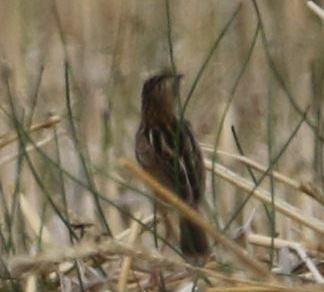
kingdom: Animalia
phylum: Chordata
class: Aves
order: Passeriformes
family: Cisticolidae
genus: Cisticola
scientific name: Cisticola juncidis
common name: Zitting cisticola
